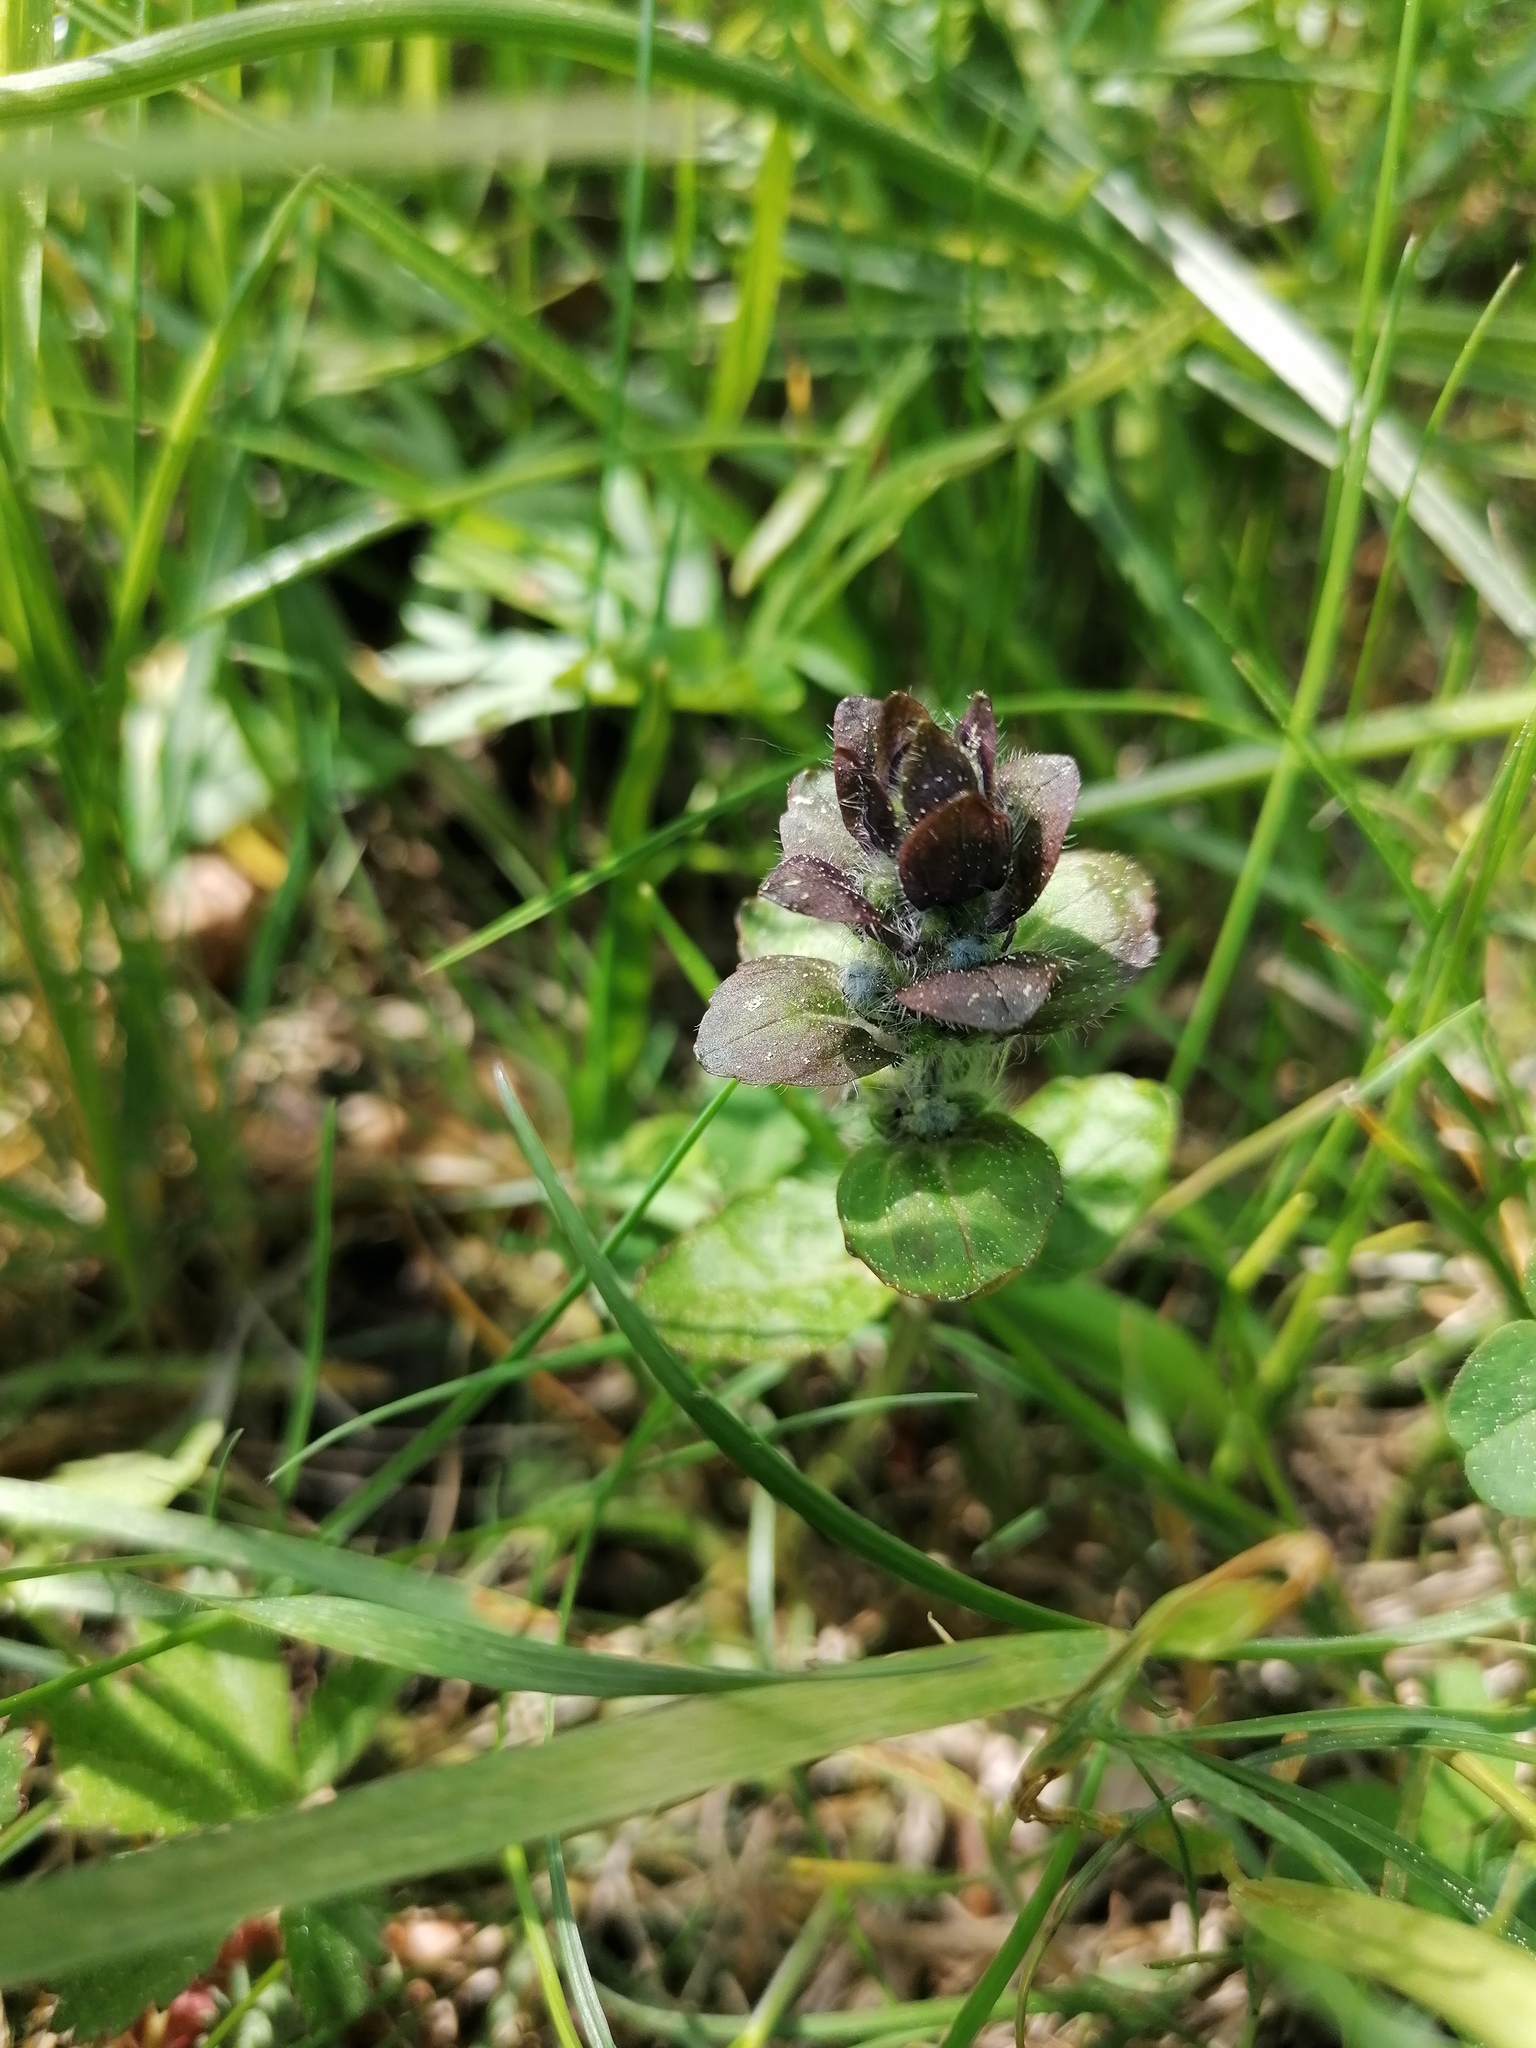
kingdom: Plantae
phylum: Tracheophyta
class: Magnoliopsida
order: Lamiales
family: Lamiaceae
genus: Ajuga
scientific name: Ajuga reptans
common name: Bugle
